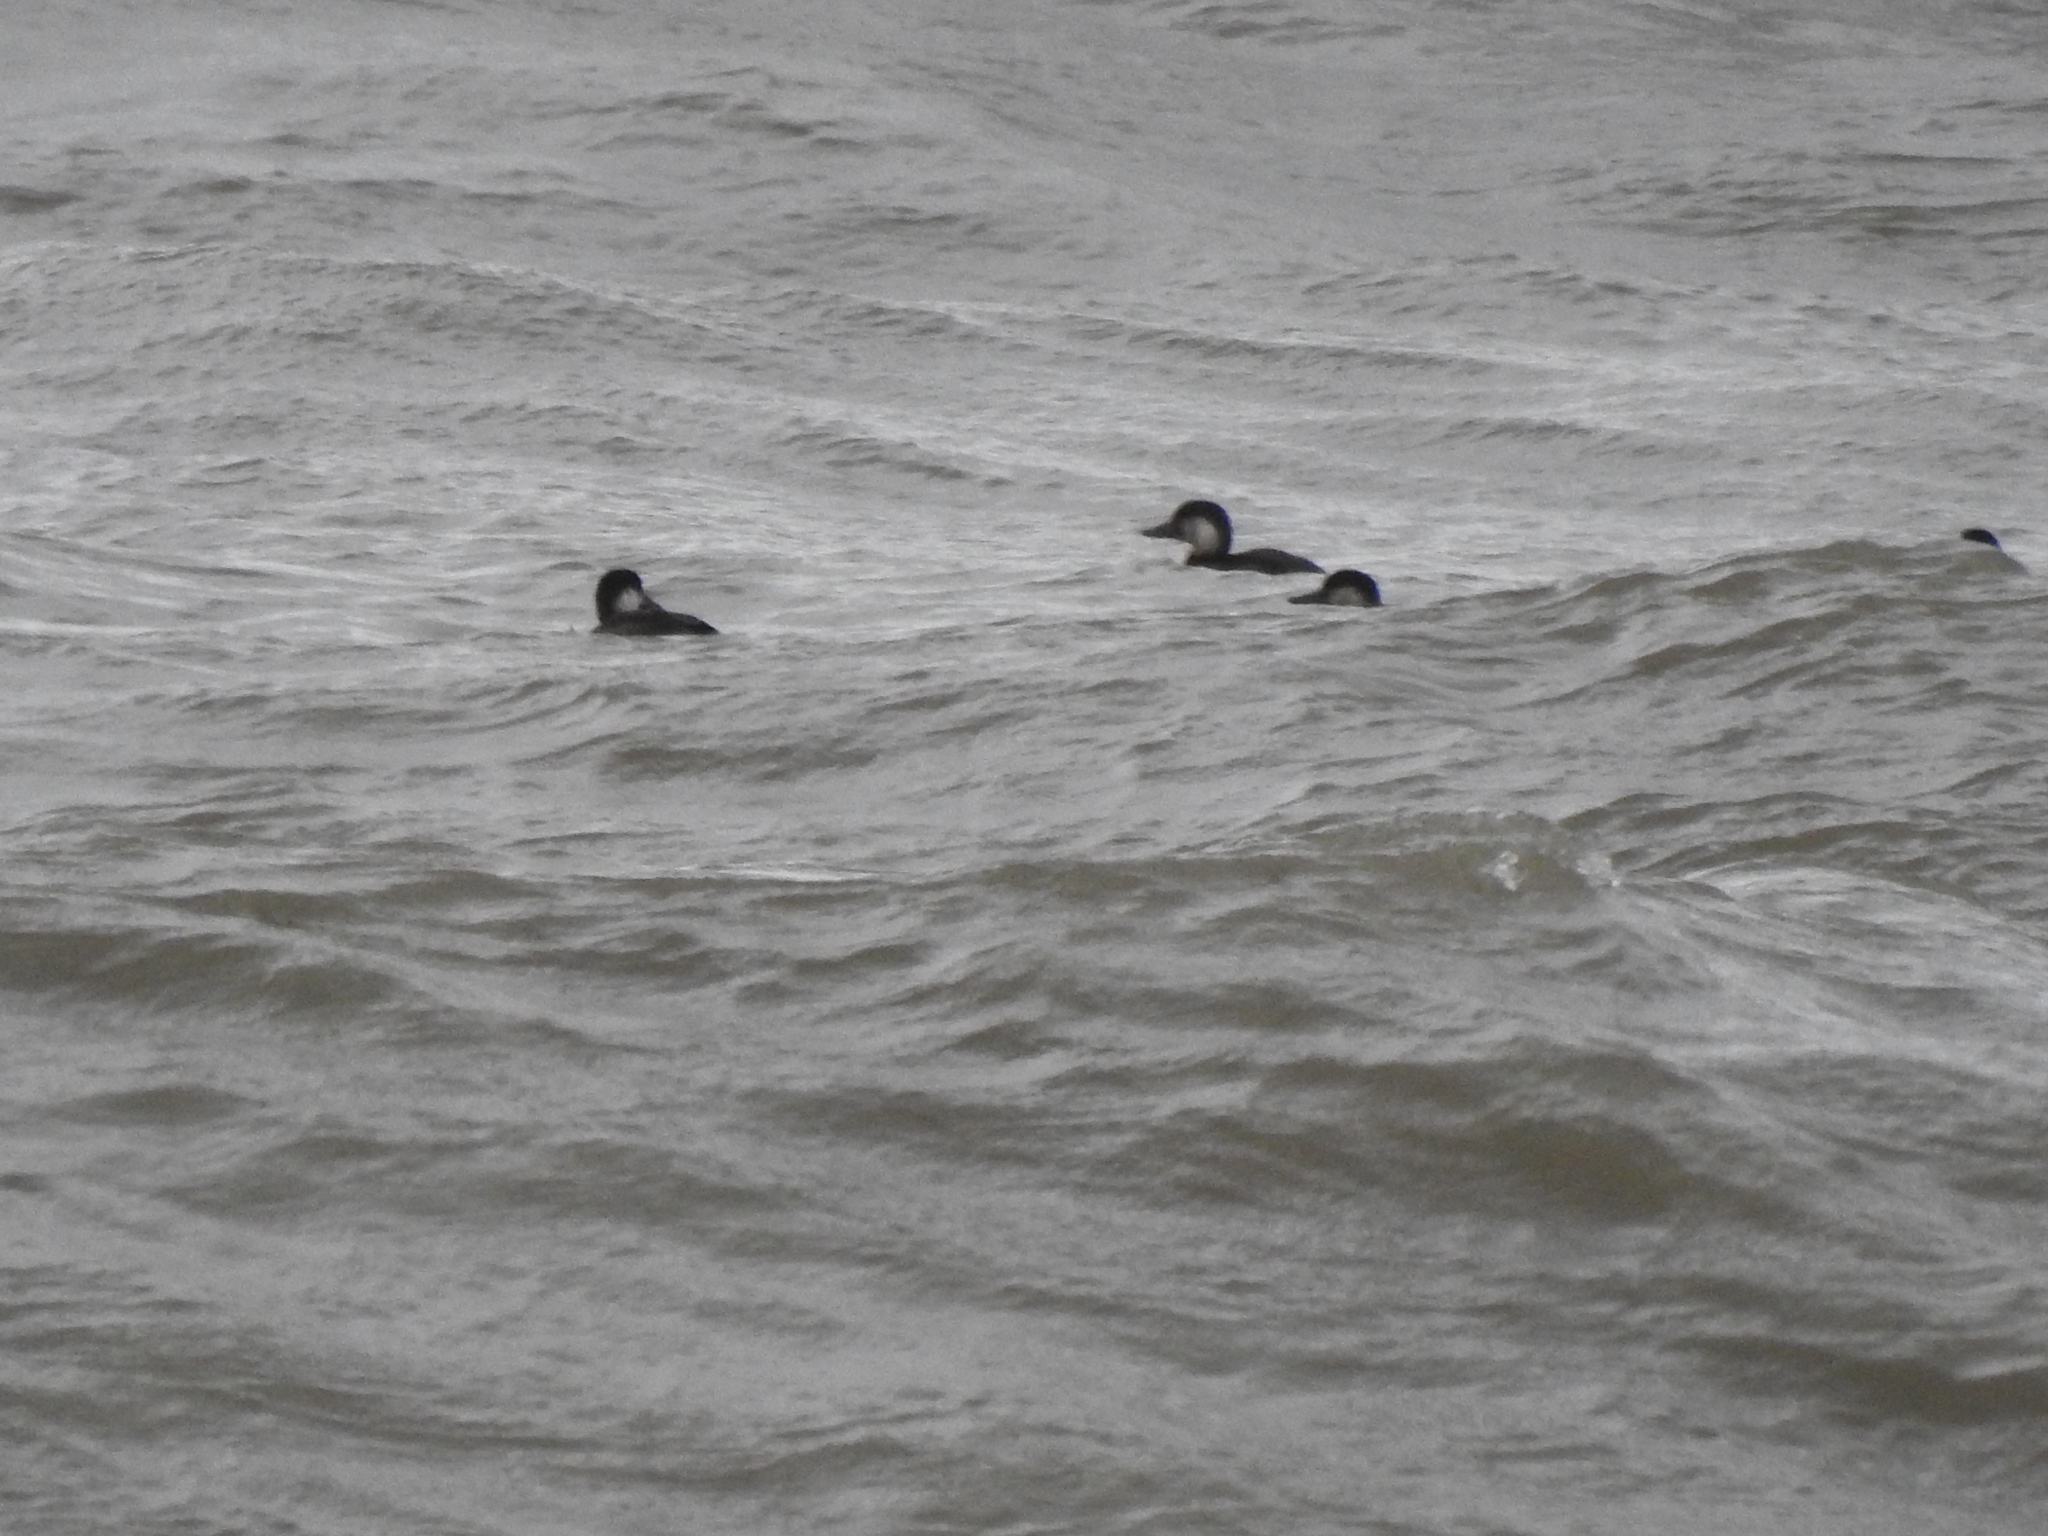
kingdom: Animalia
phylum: Chordata
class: Aves
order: Anseriformes
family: Anatidae
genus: Melanitta
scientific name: Melanitta americana
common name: Black scoter
